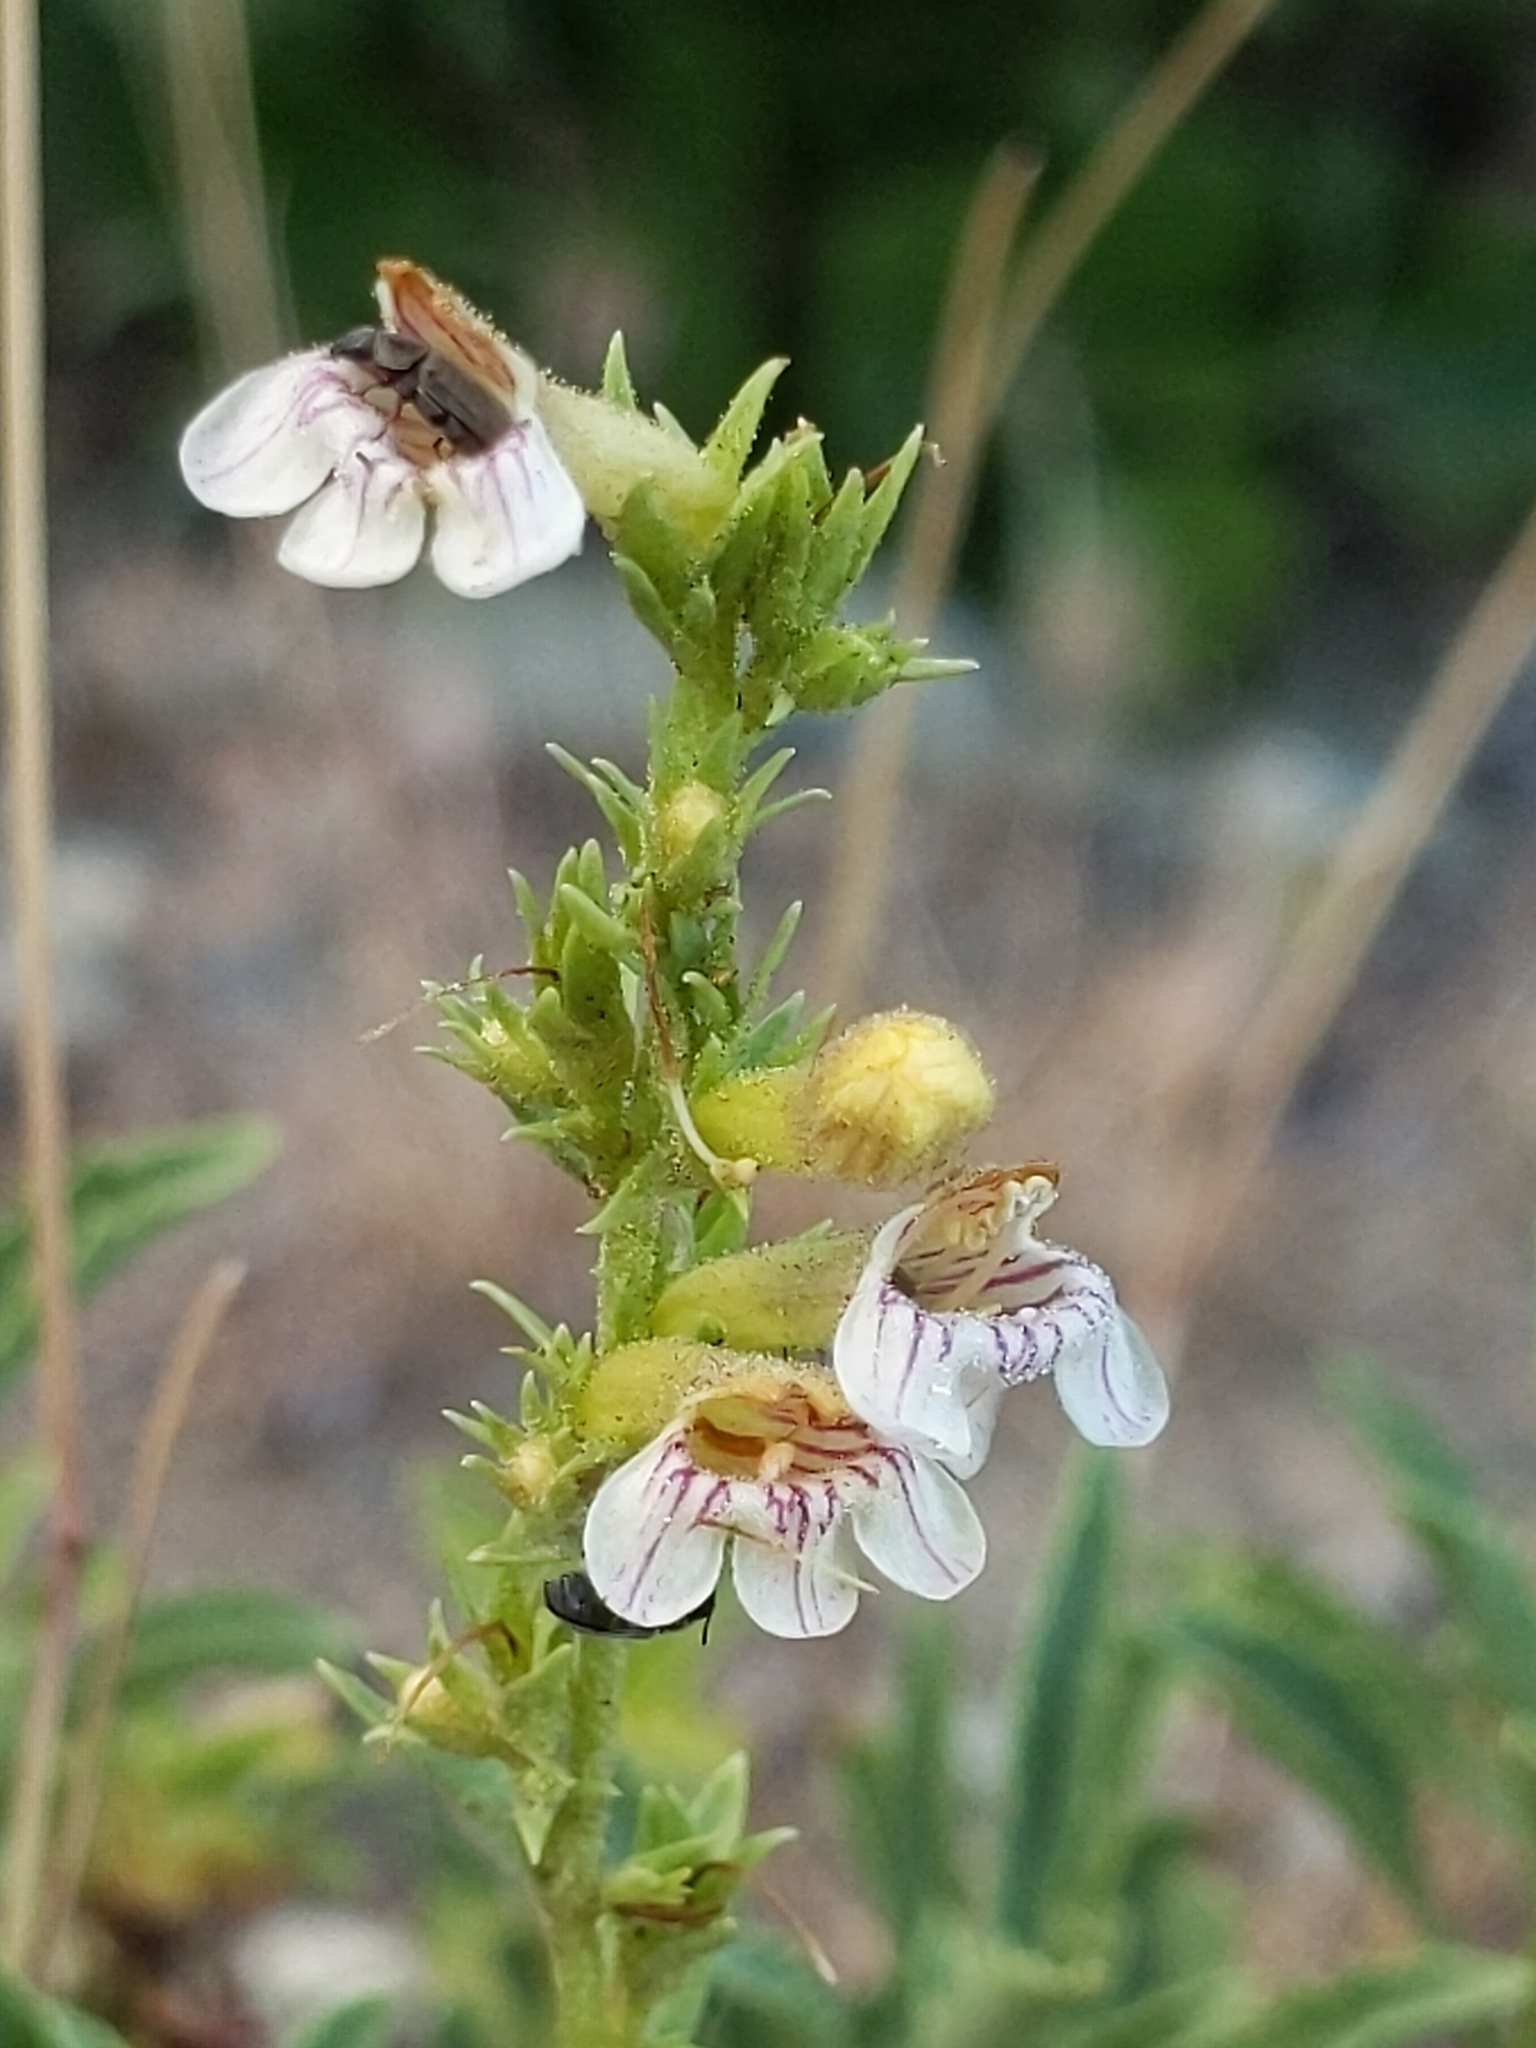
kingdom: Plantae
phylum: Tracheophyta
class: Magnoliopsida
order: Lamiales
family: Plantaginaceae
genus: Penstemon
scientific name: Penstemon deustus
